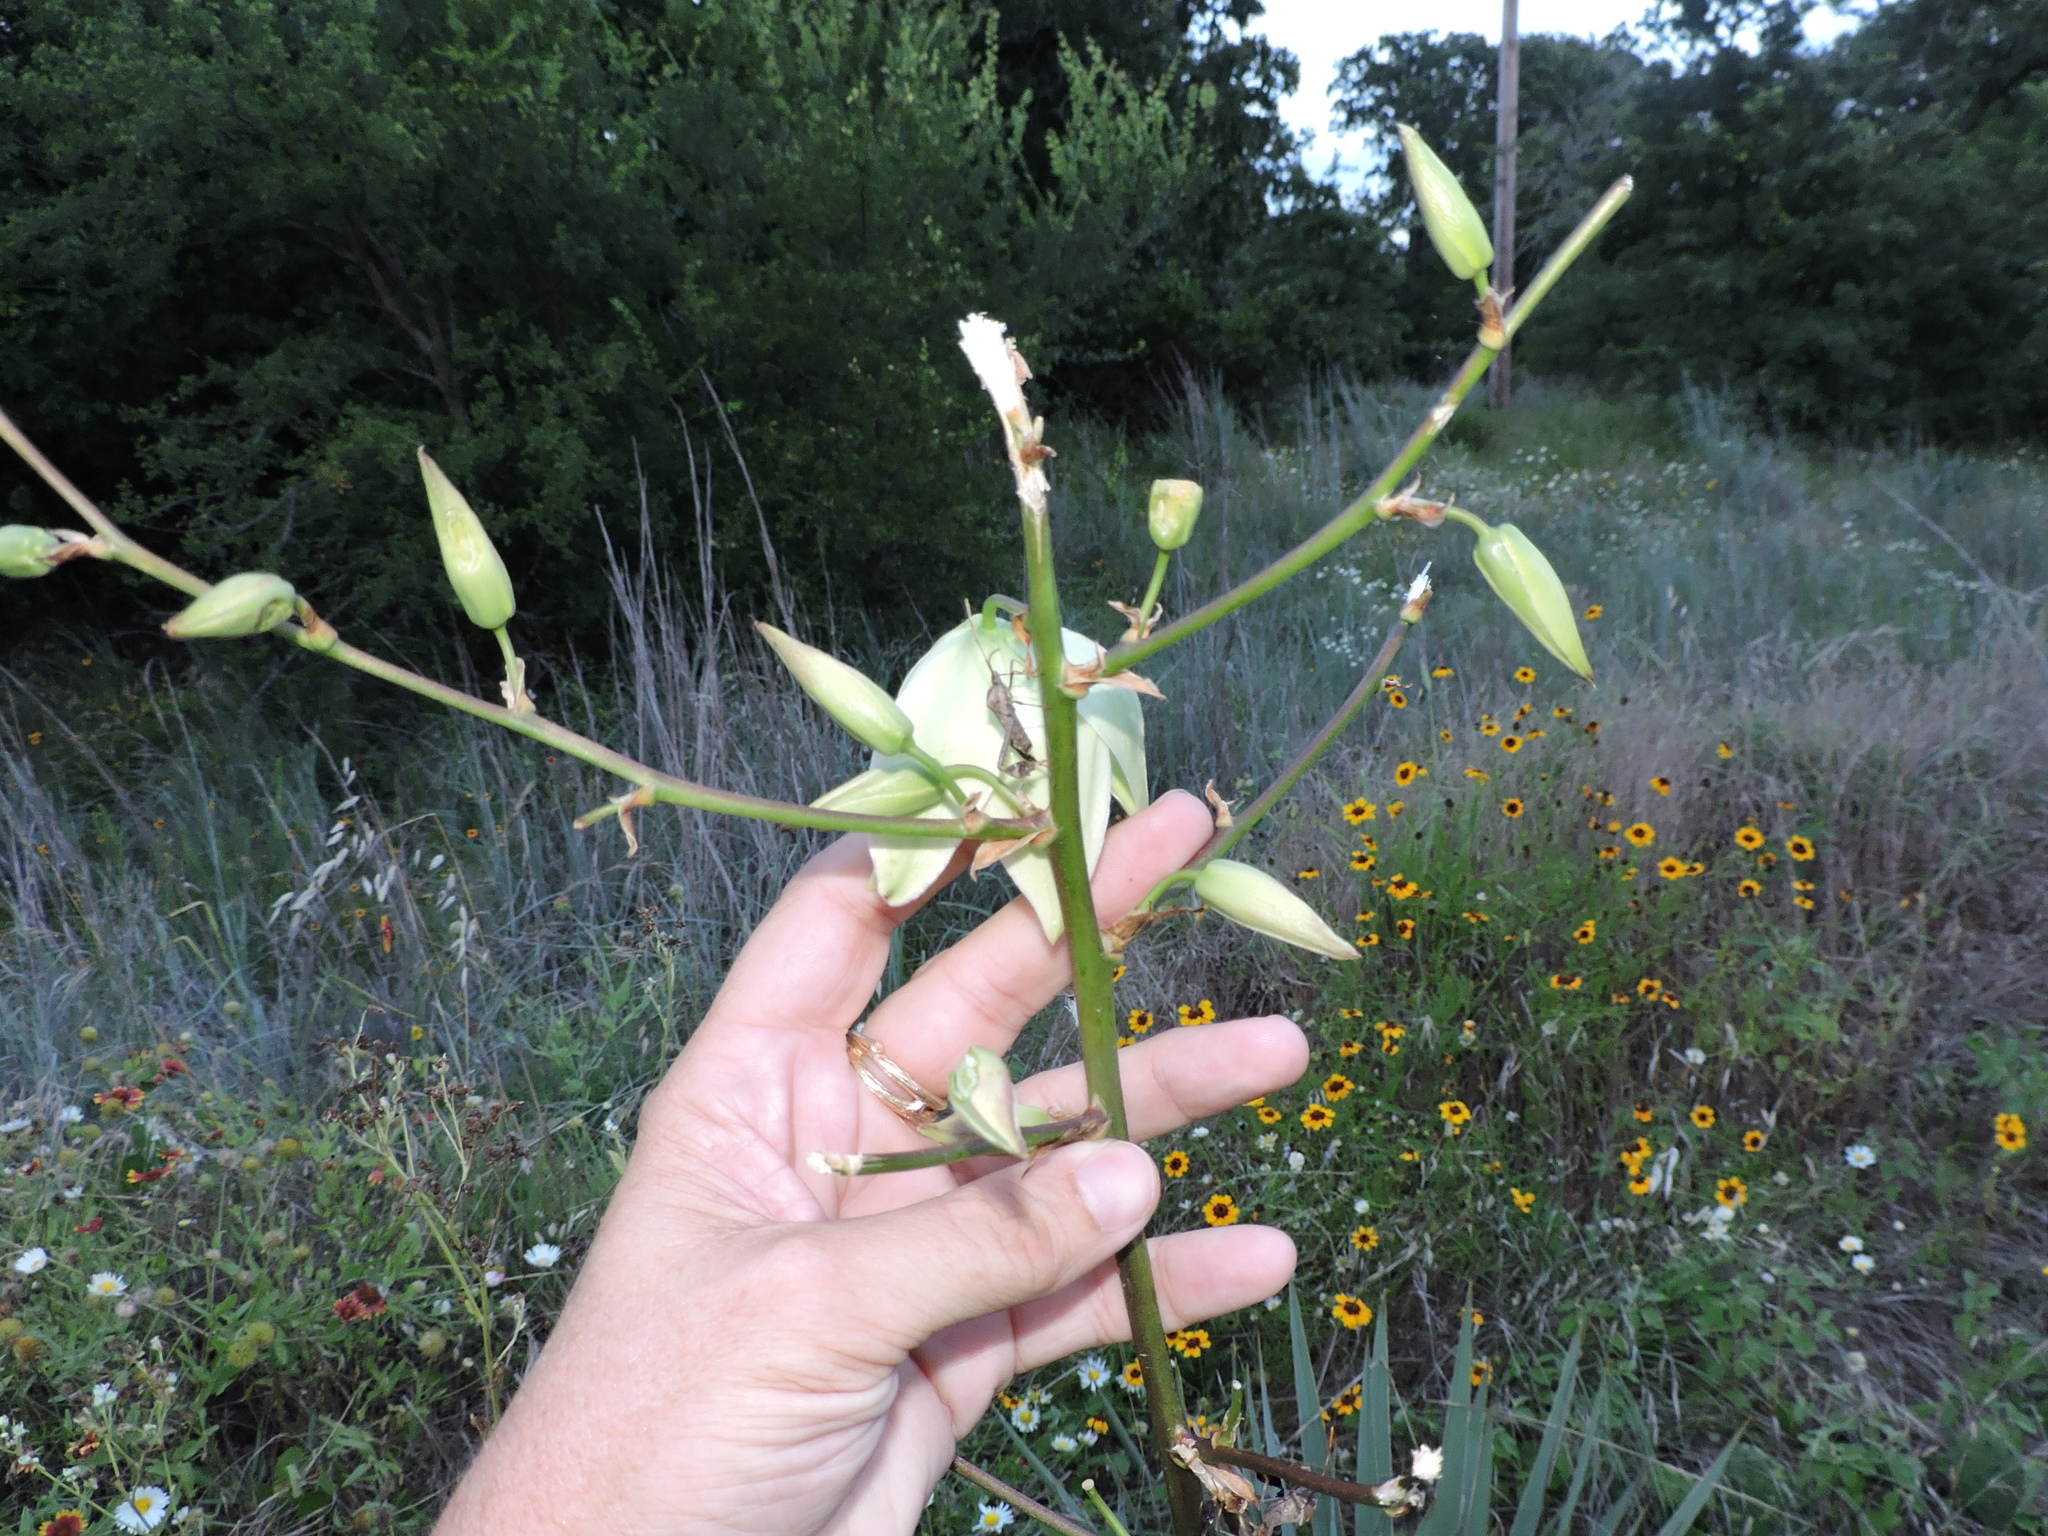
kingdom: Plantae
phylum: Tracheophyta
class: Liliopsida
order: Asparagales
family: Asparagaceae
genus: Yucca
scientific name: Yucca pallida
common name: Pale leaf yucca
